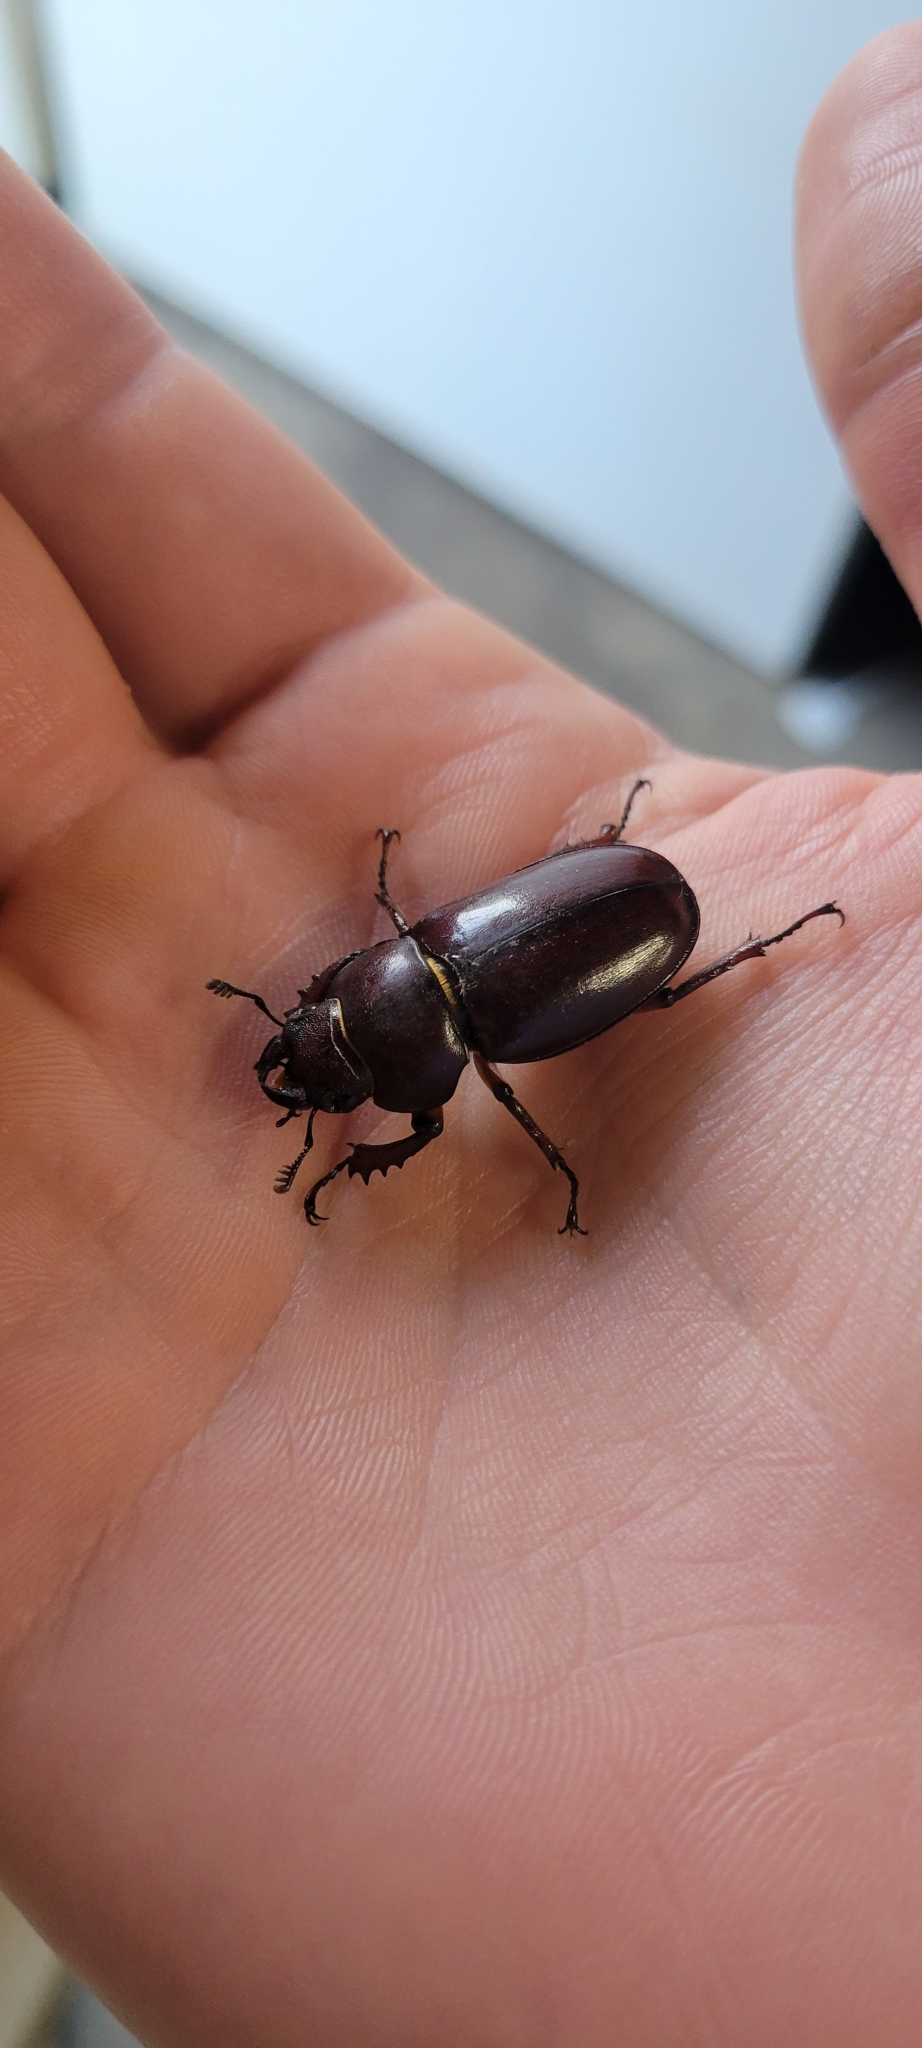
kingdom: Animalia
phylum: Arthropoda
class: Insecta
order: Coleoptera
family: Lucanidae
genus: Lucanus
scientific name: Lucanus capreolus
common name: Stag beetle
